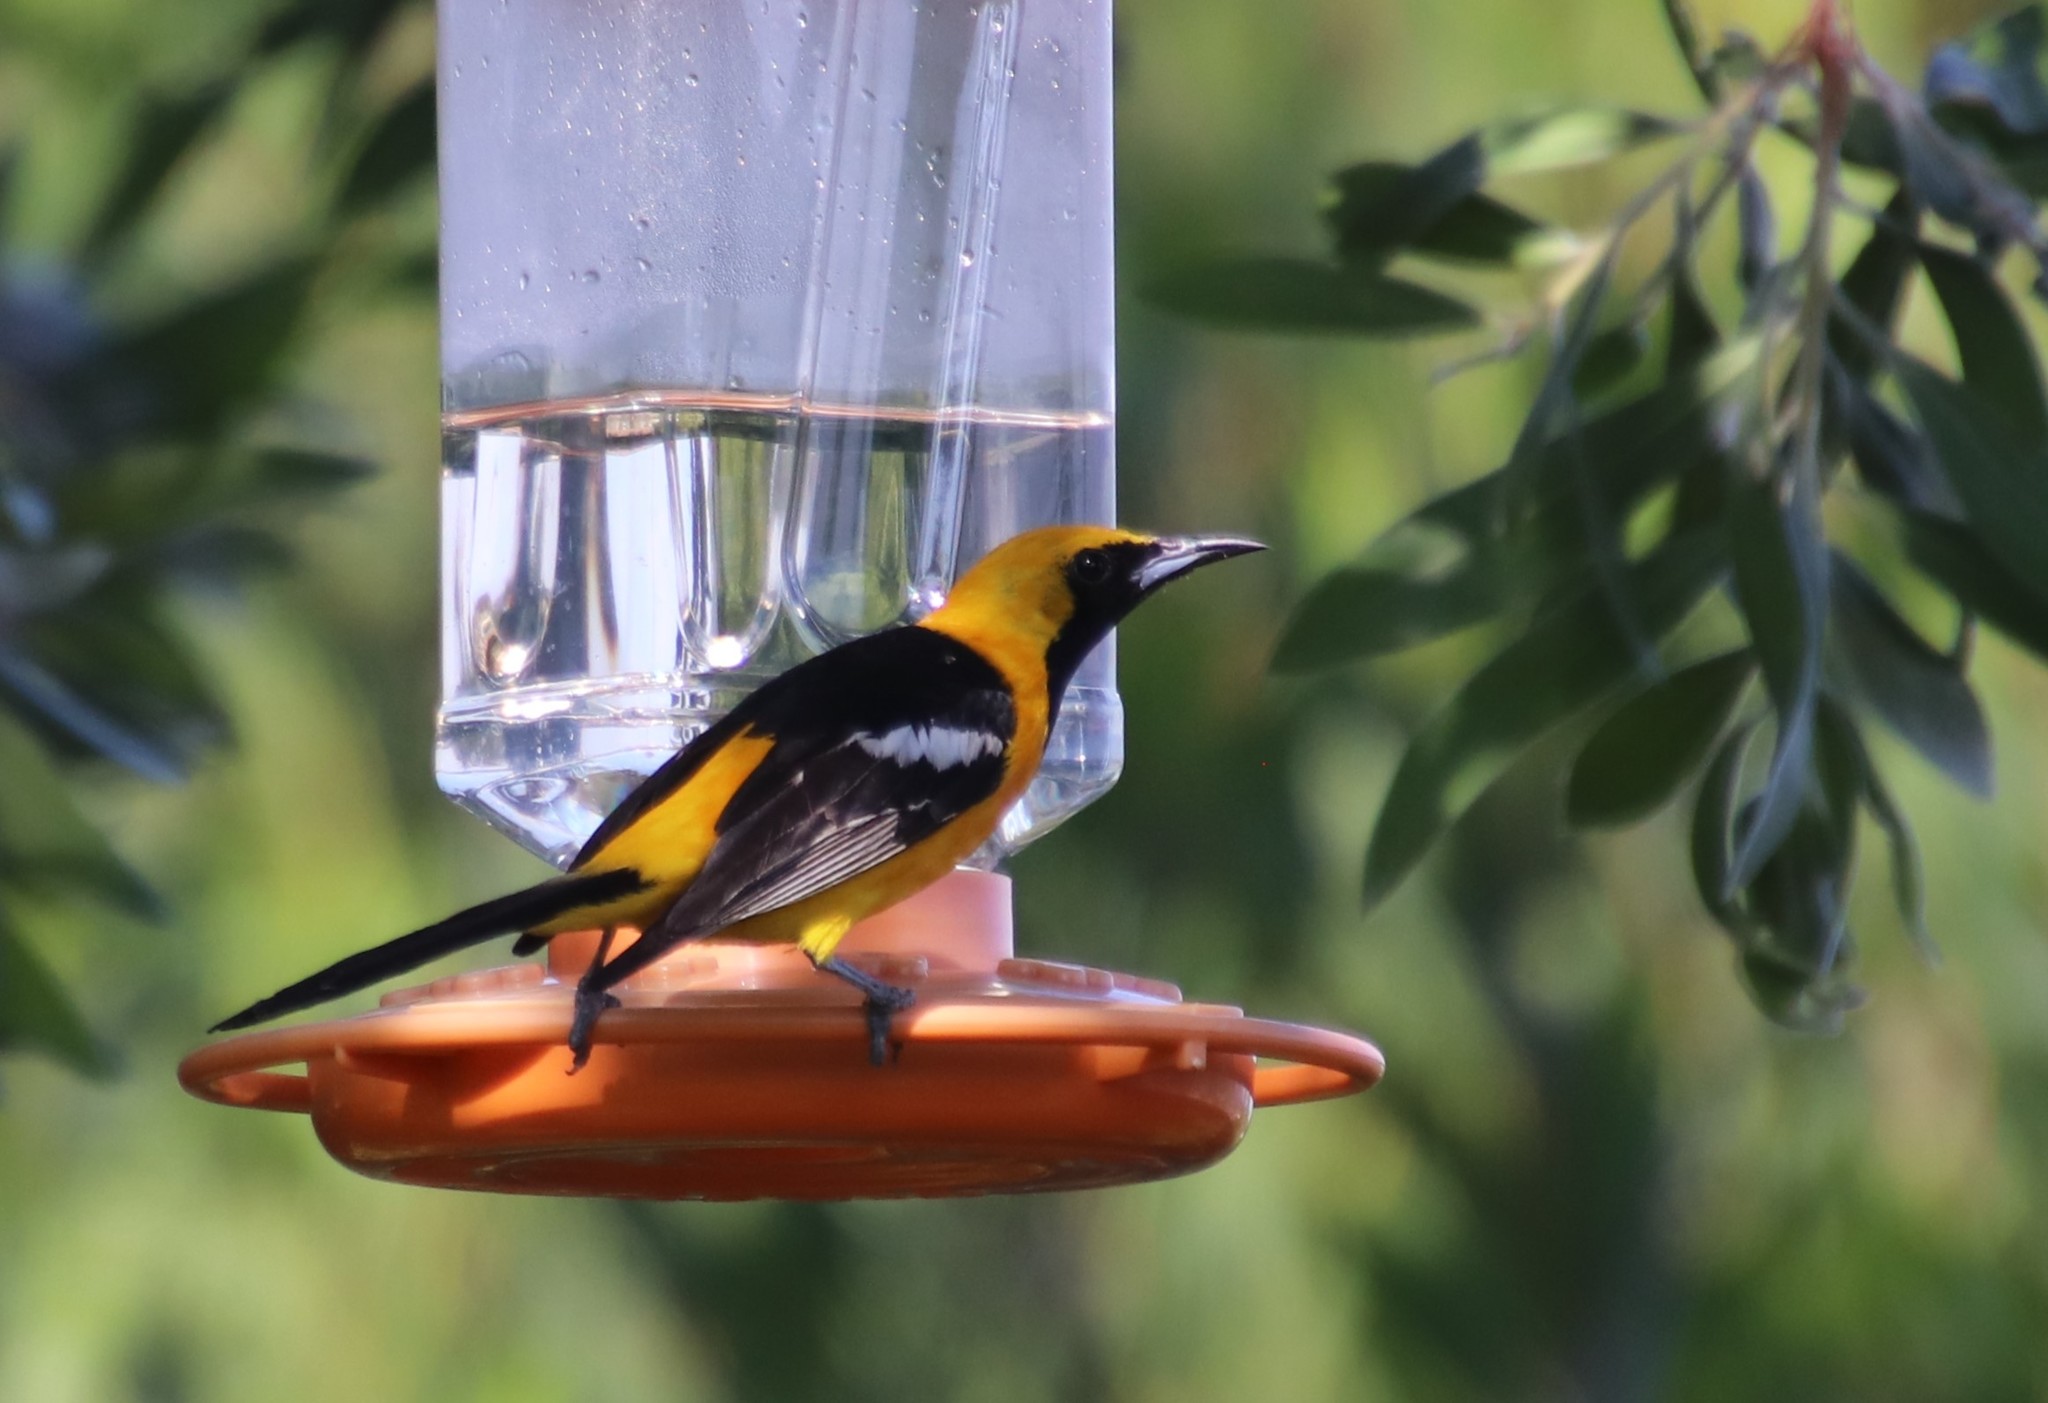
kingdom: Animalia
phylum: Chordata
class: Aves
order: Passeriformes
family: Icteridae
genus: Icterus
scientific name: Icterus cucullatus
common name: Hooded oriole
